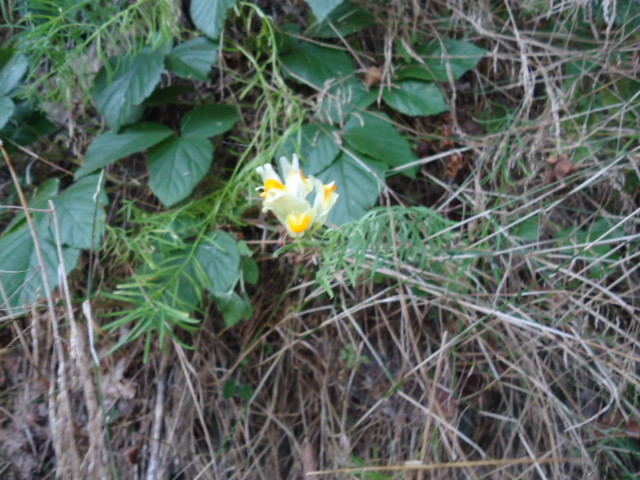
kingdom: Plantae
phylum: Tracheophyta
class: Magnoliopsida
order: Lamiales
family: Plantaginaceae
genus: Linaria
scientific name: Linaria vulgaris
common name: Butter and eggs
